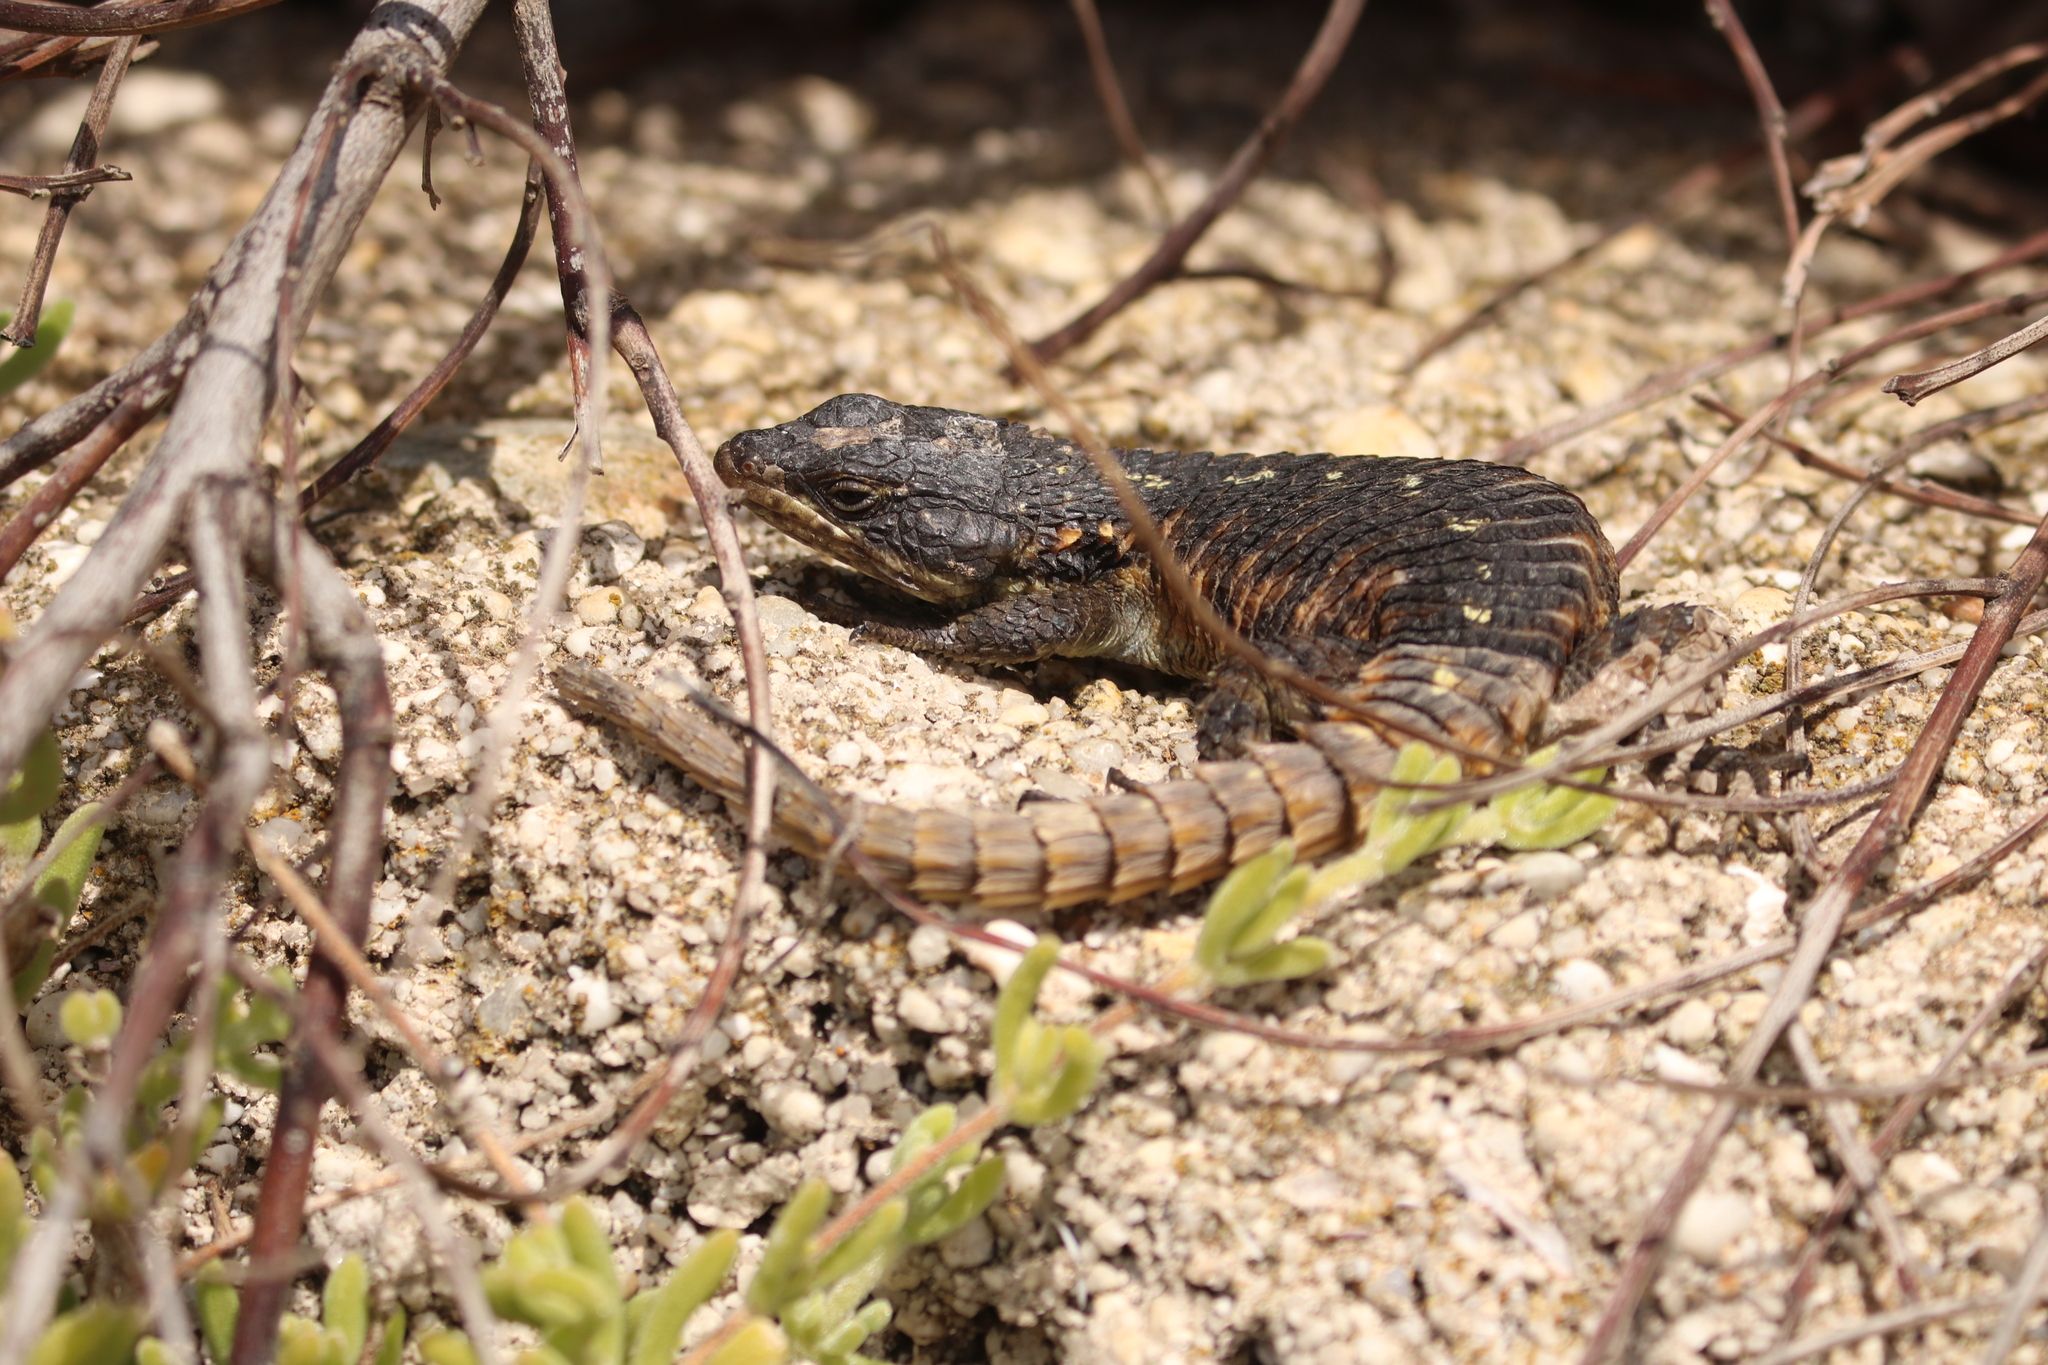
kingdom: Animalia
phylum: Chordata
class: Squamata
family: Cordylidae
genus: Cordylus
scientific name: Cordylus cordylus
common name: Cape girdled lizard
